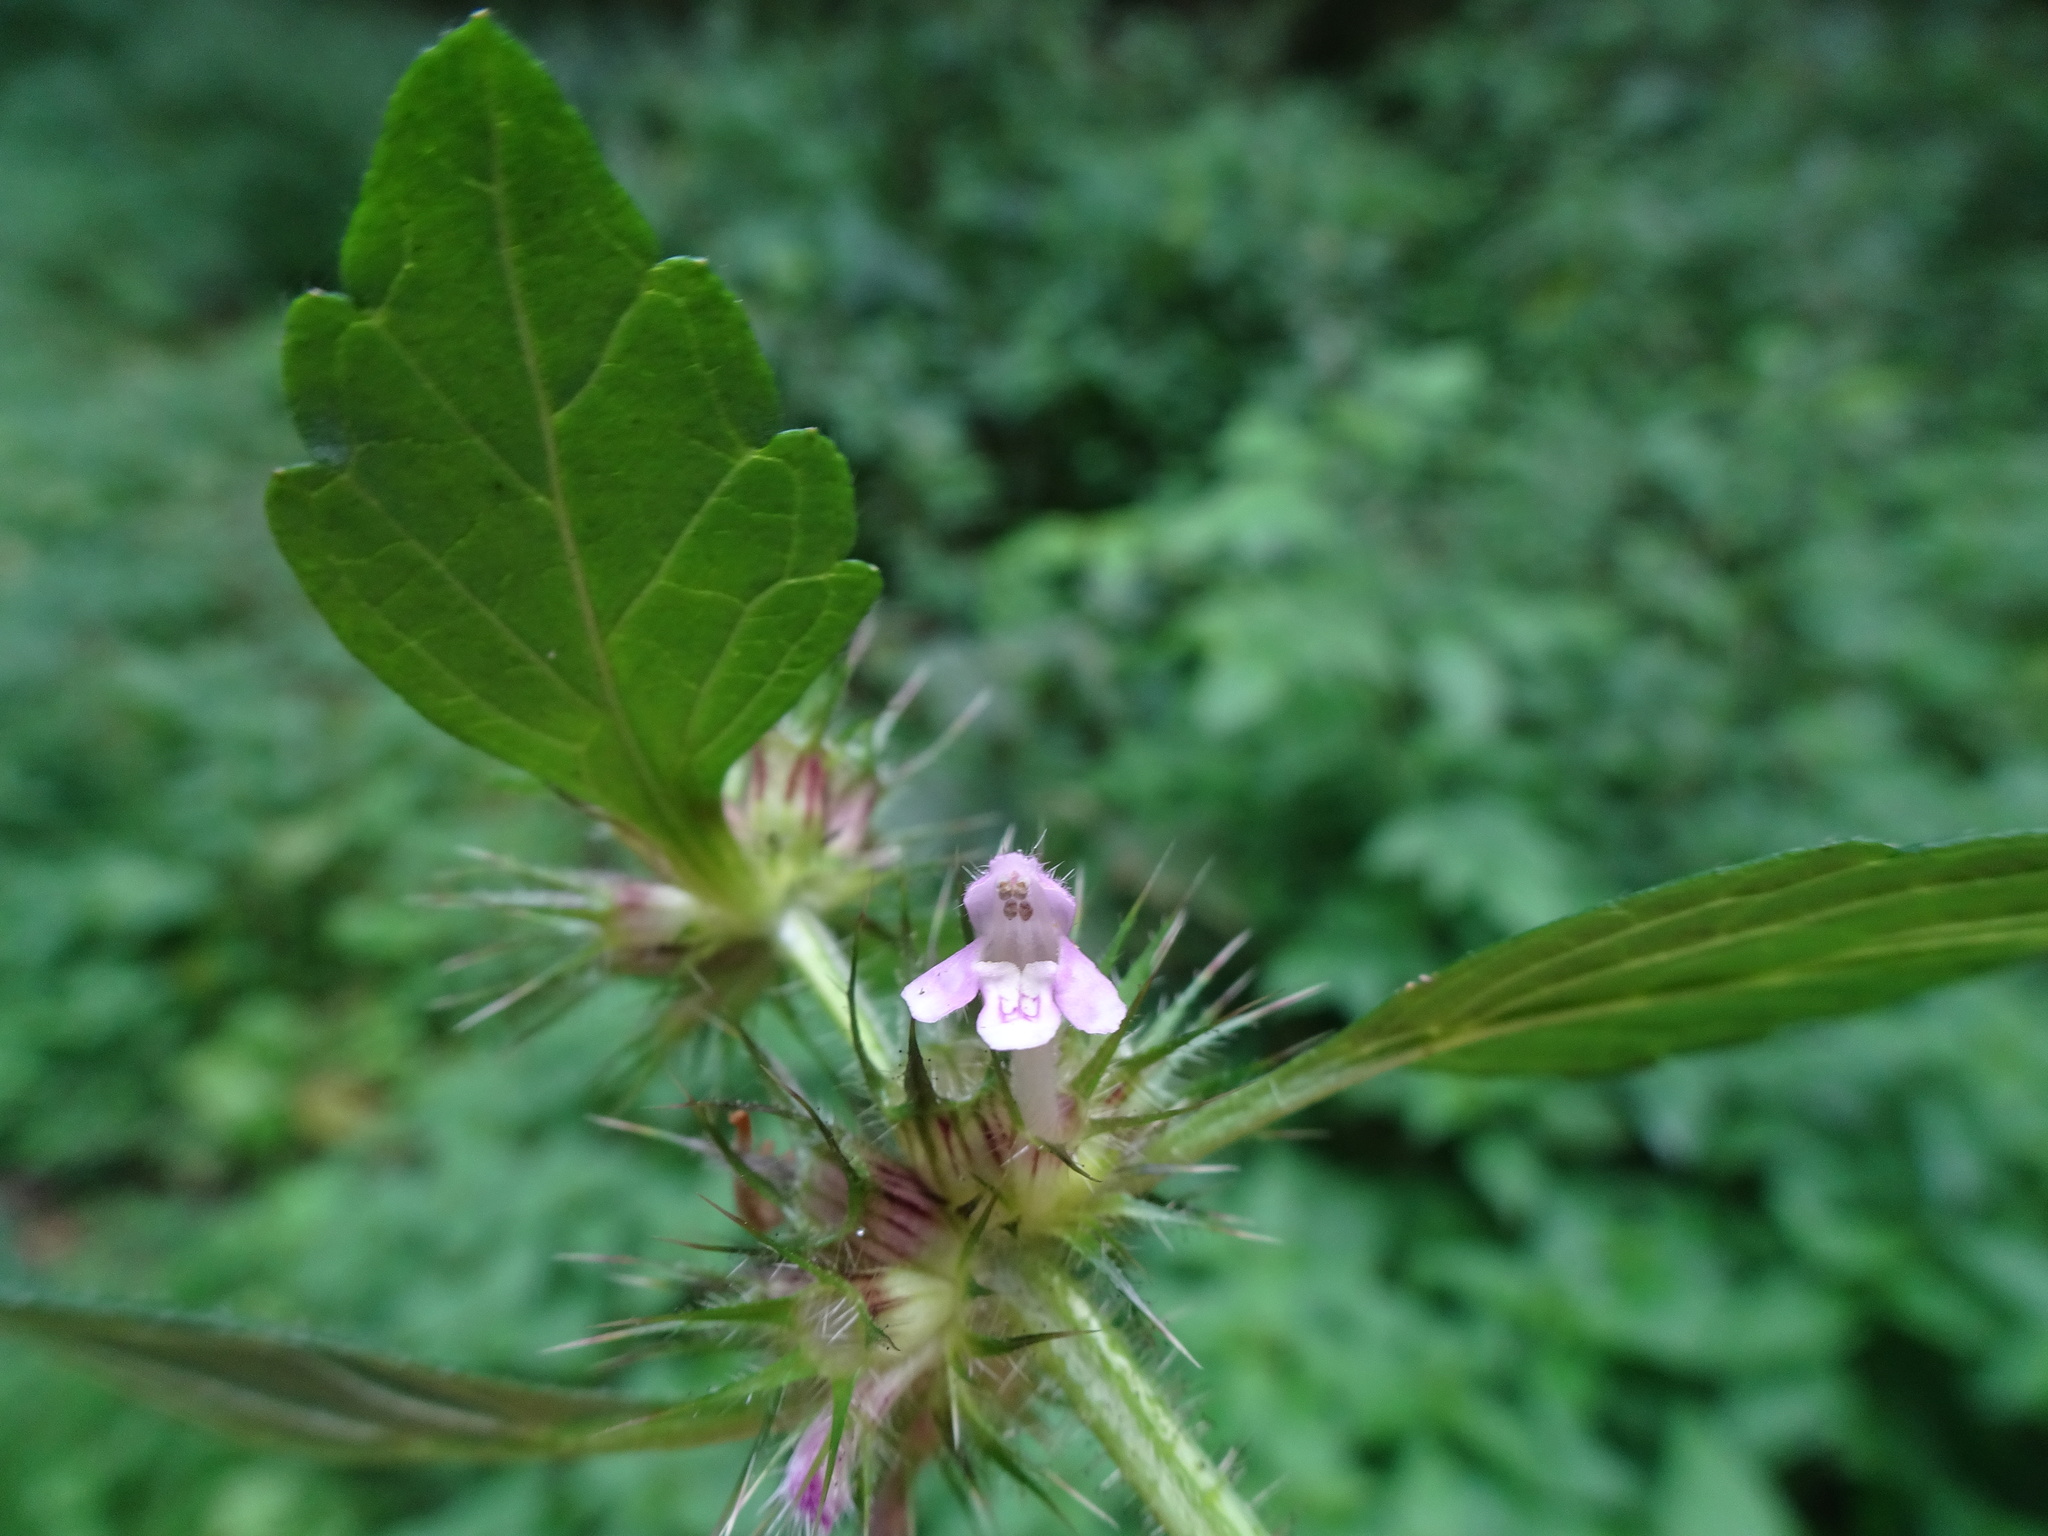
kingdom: Plantae
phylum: Tracheophyta
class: Magnoliopsida
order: Lamiales
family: Lamiaceae
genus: Galeopsis
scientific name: Galeopsis tetrahit
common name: Common hemp-nettle
